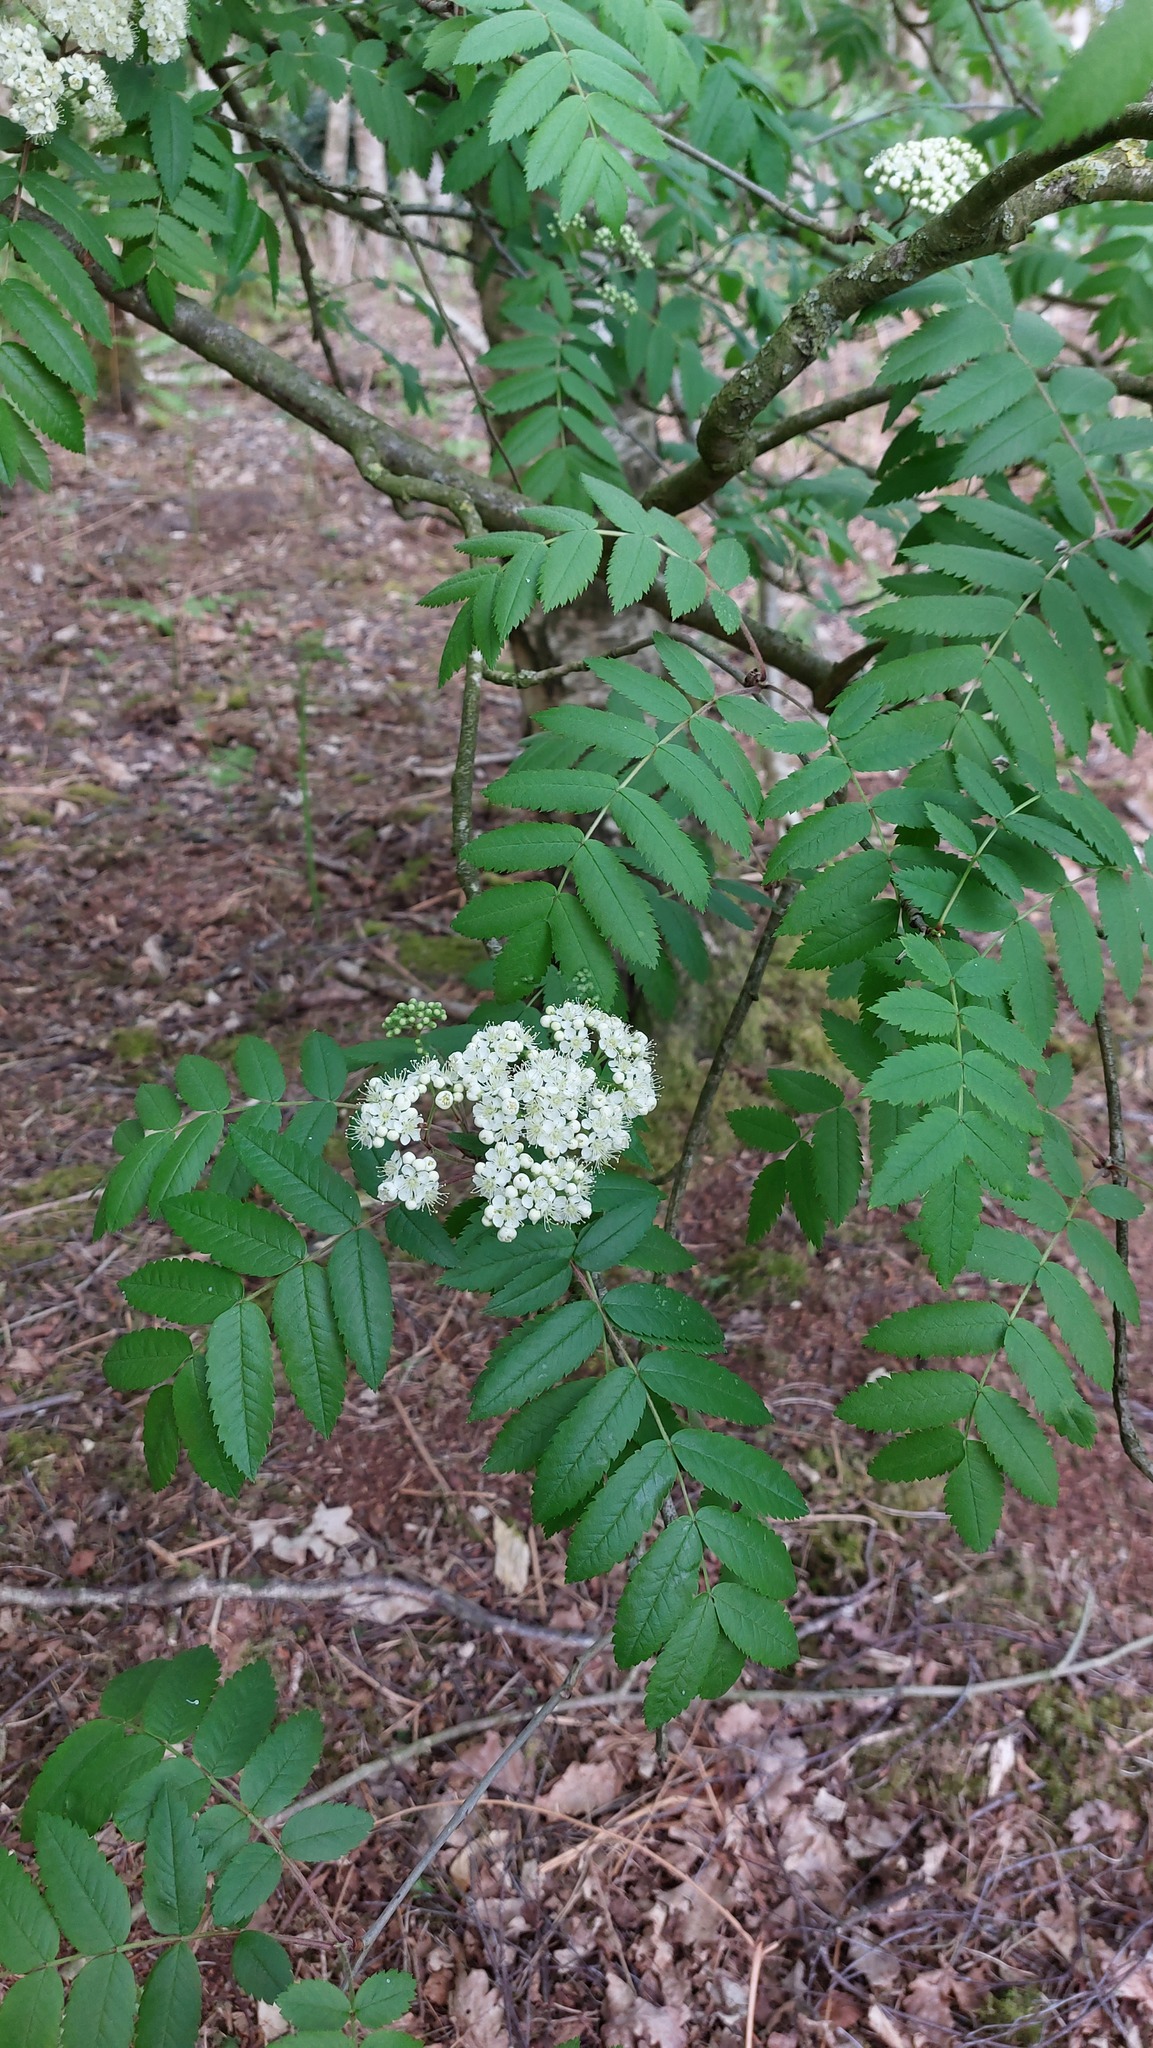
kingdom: Plantae
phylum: Tracheophyta
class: Magnoliopsida
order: Rosales
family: Rosaceae
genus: Sorbus
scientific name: Sorbus aucuparia
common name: Rowan
